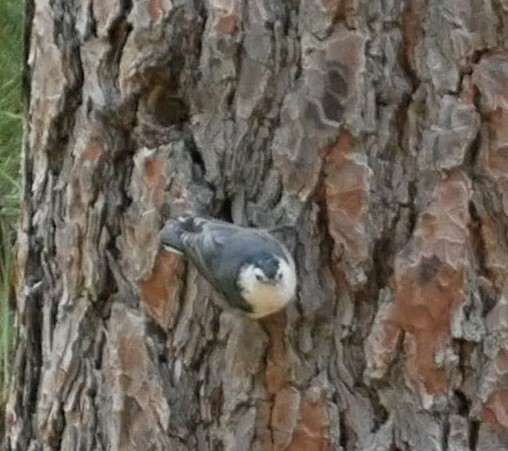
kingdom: Animalia
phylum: Chordata
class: Aves
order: Passeriformes
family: Sittidae
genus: Sitta
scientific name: Sitta carolinensis
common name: White-breasted nuthatch
